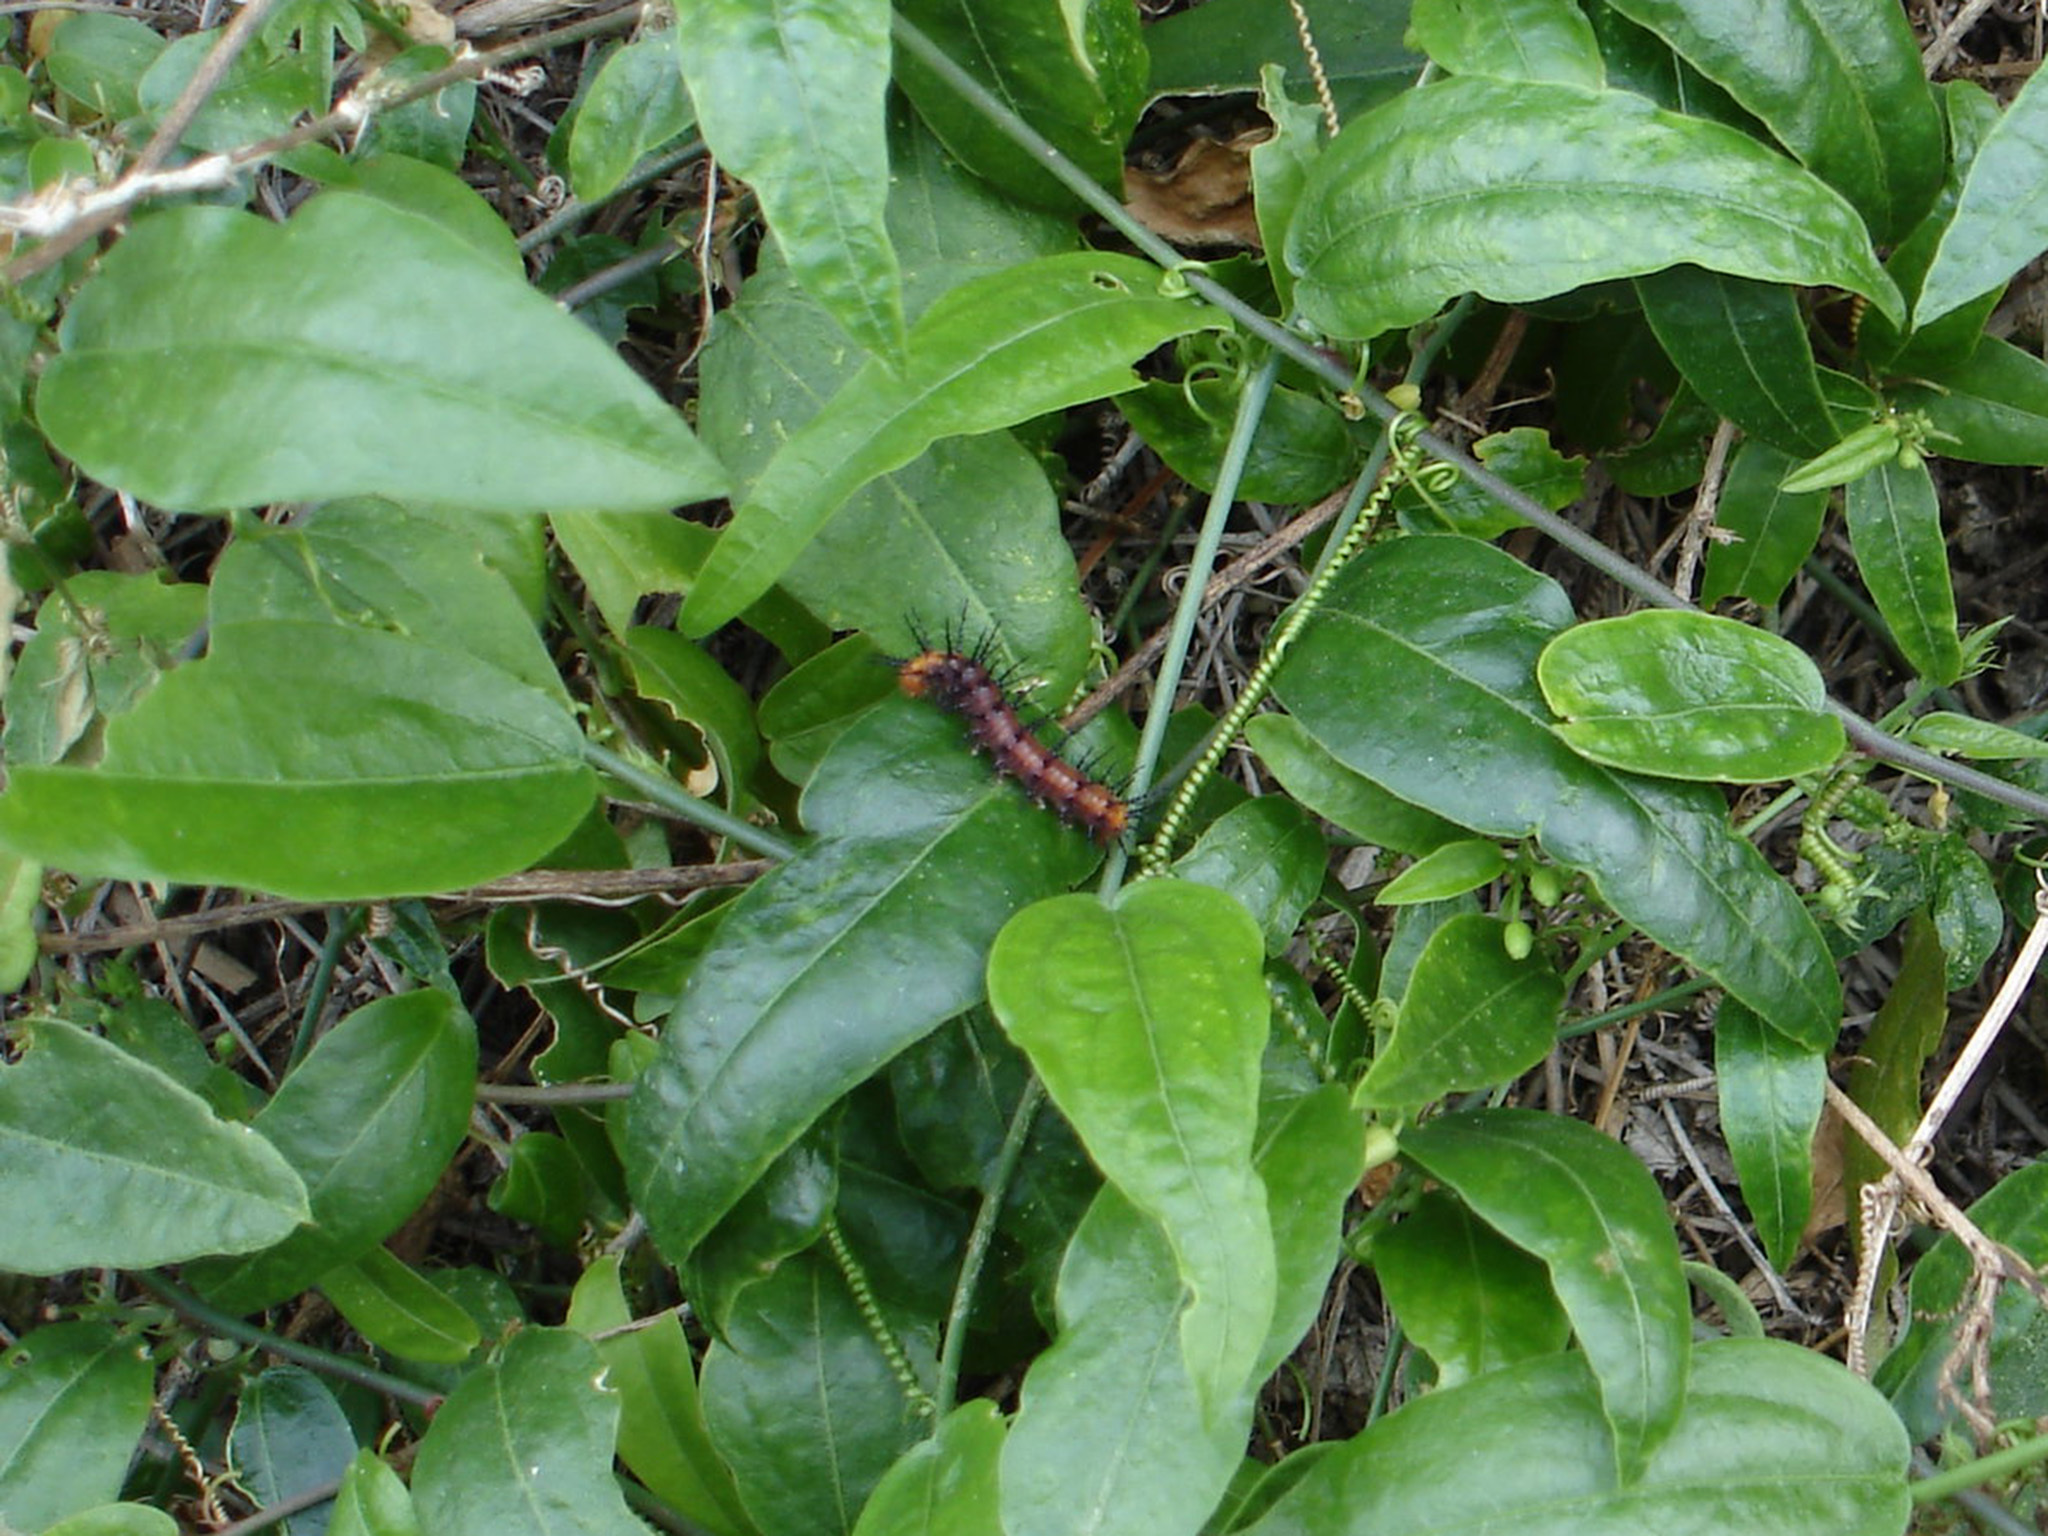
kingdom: Animalia
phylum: Arthropoda
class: Insecta
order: Lepidoptera
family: Nymphalidae
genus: Acraea
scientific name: Acraea terpsicore
